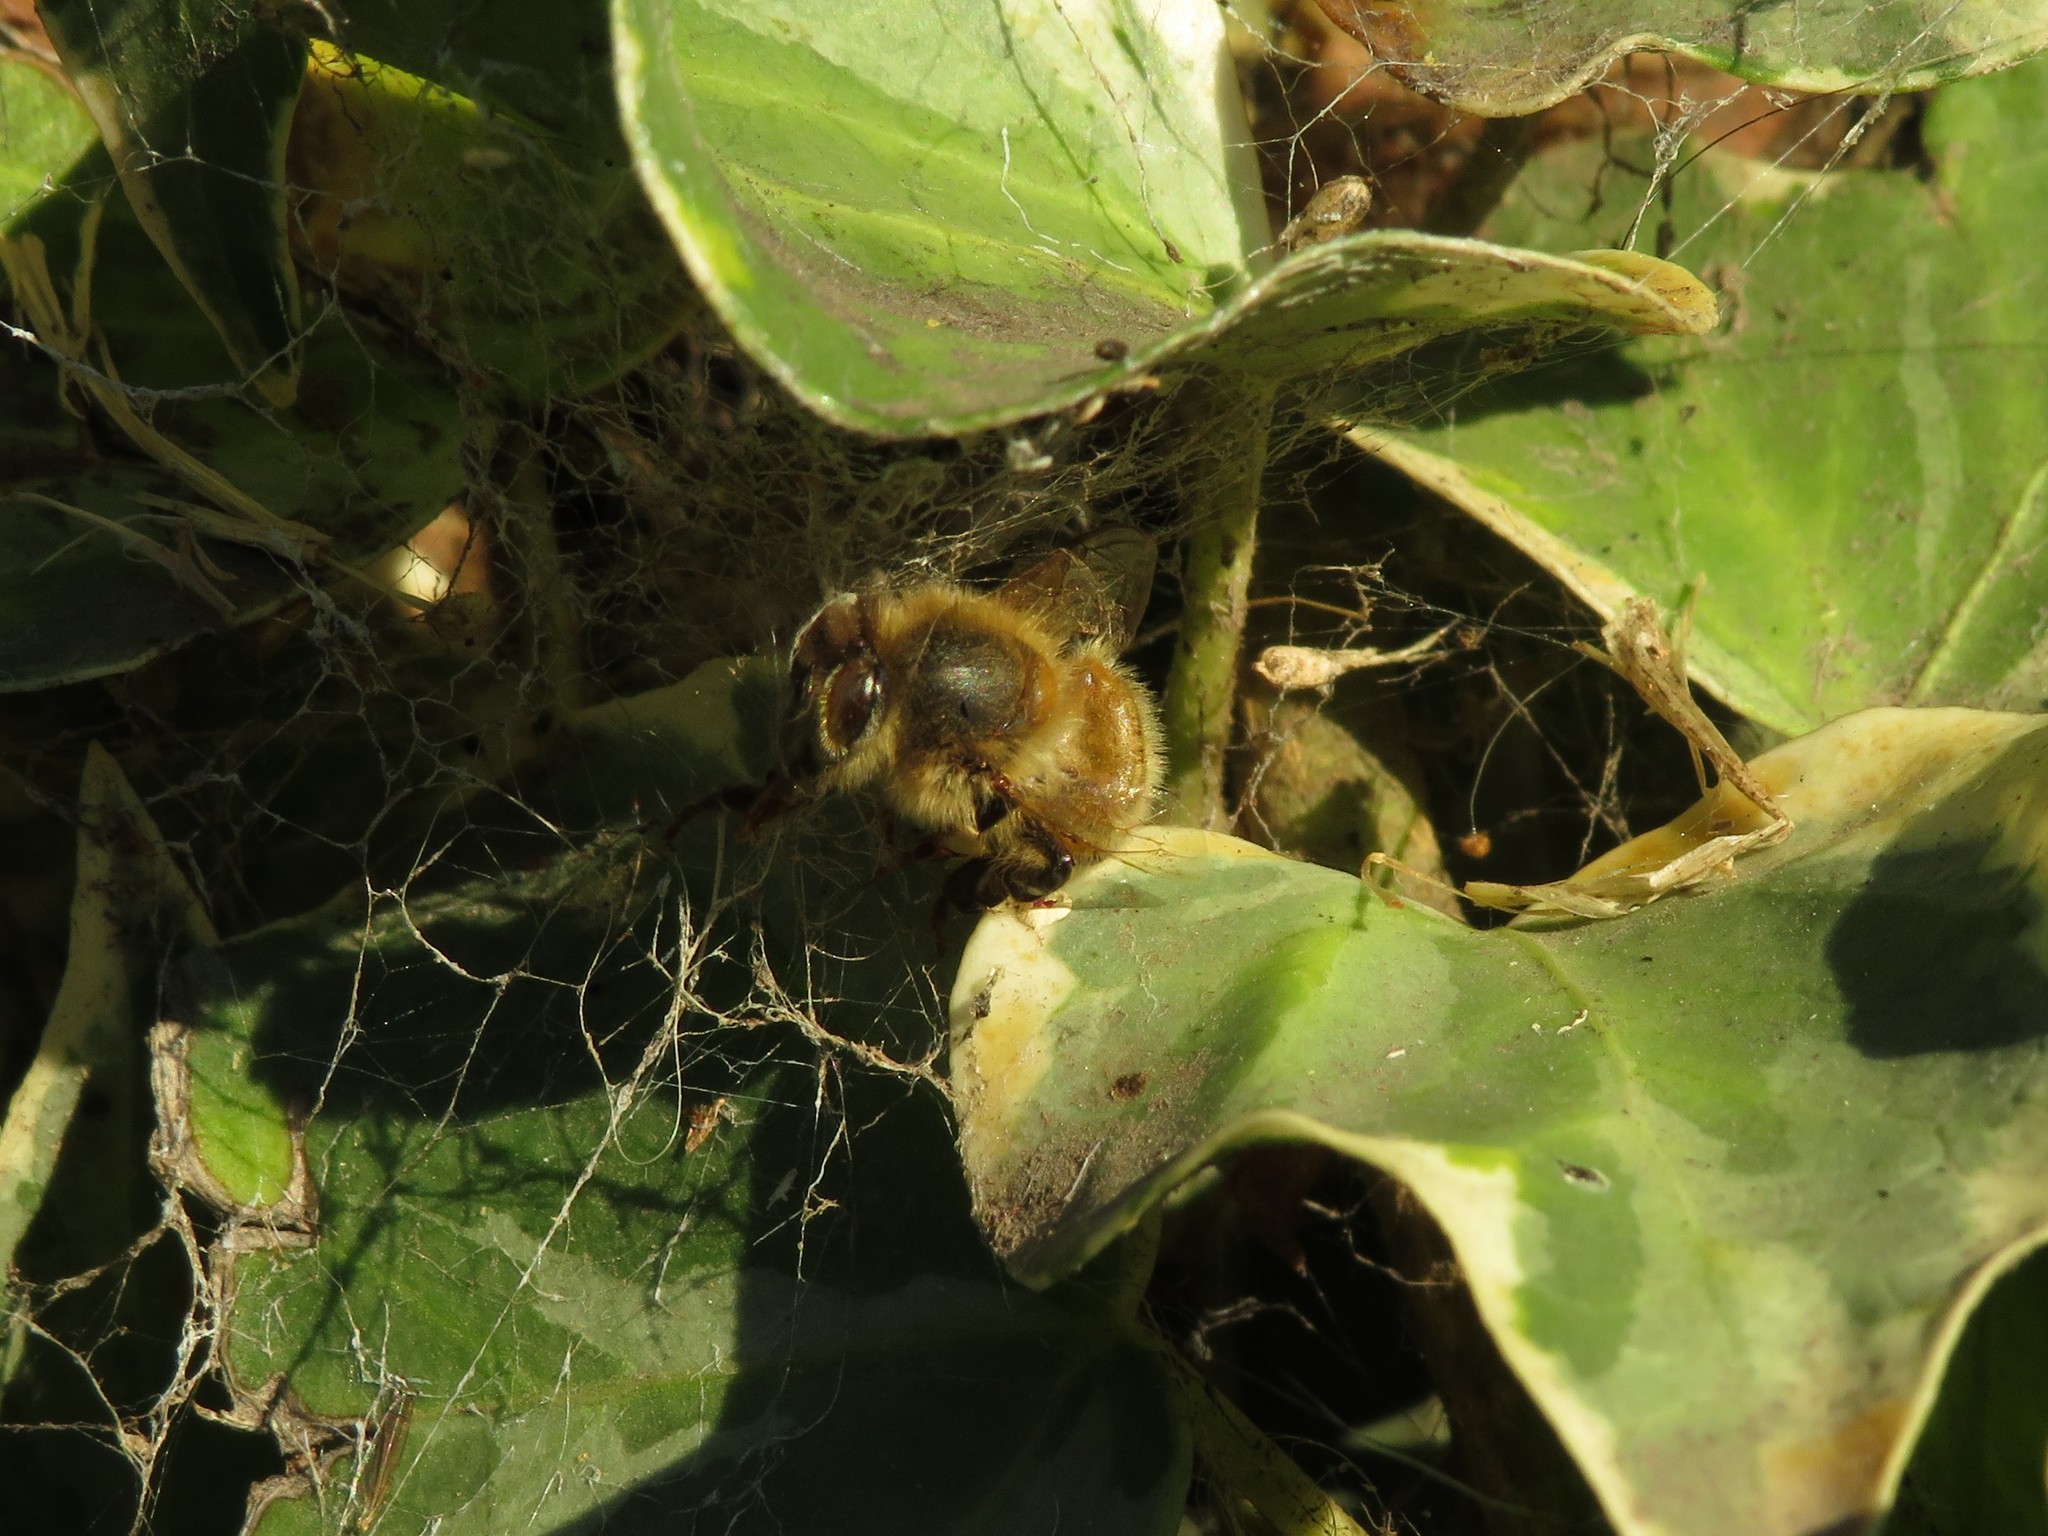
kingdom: Animalia
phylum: Arthropoda
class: Insecta
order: Hymenoptera
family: Apidae
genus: Apis
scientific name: Apis mellifera
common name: Honey bee
